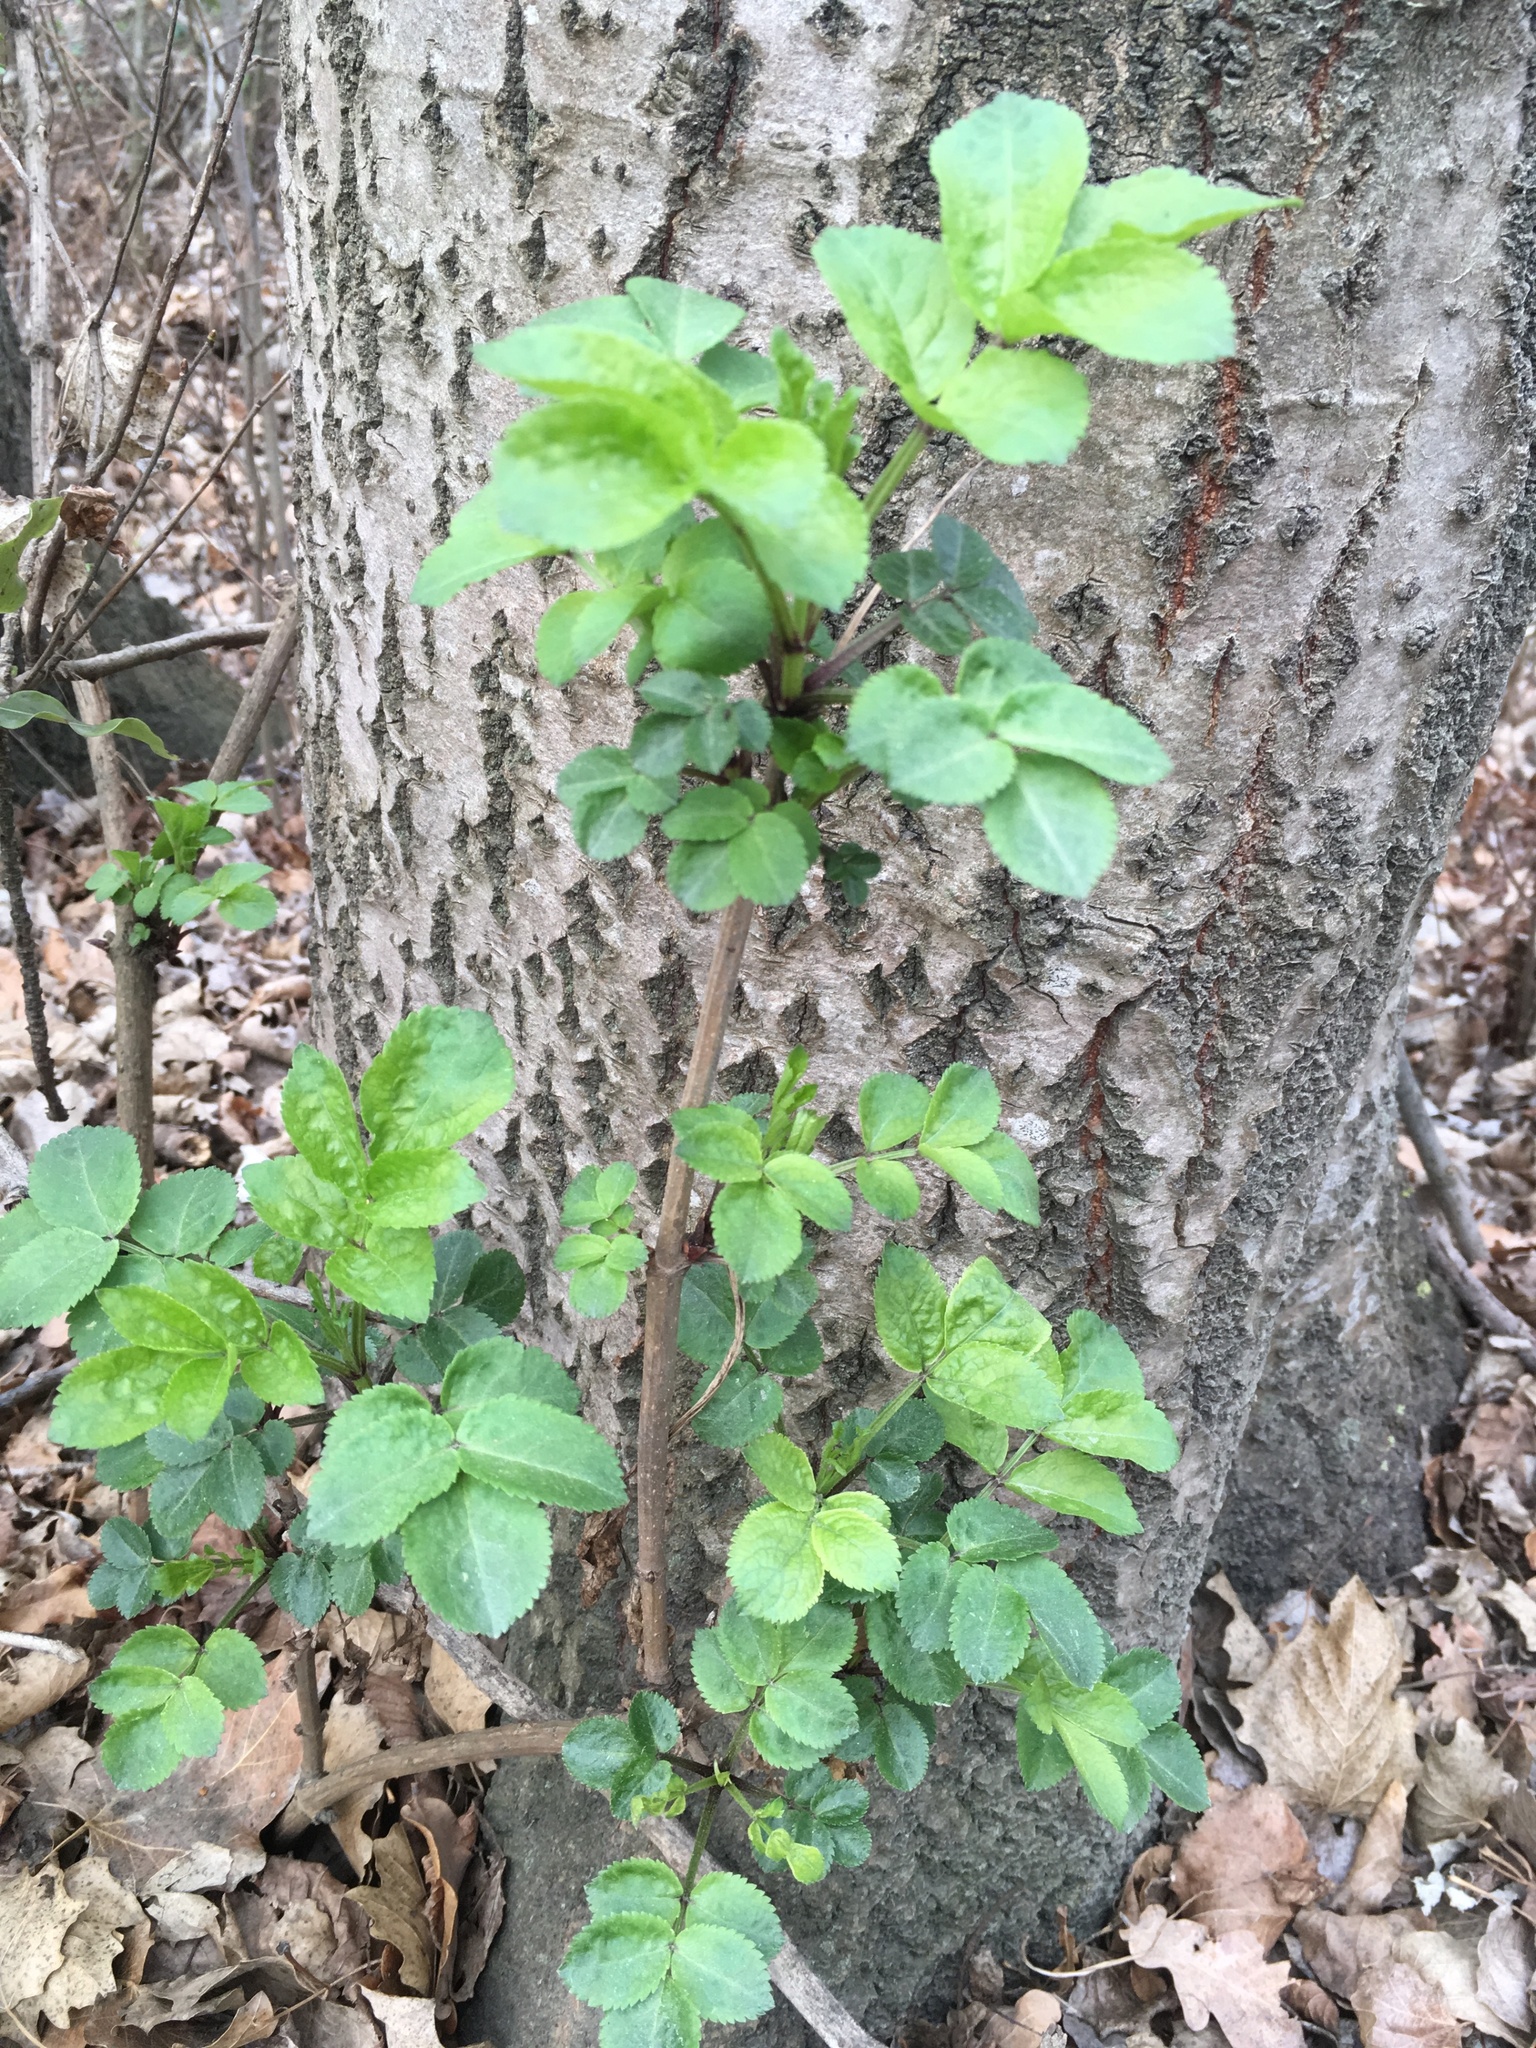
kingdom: Plantae
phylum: Tracheophyta
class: Magnoliopsida
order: Dipsacales
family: Viburnaceae
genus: Sambucus
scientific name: Sambucus nigra
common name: Elder
